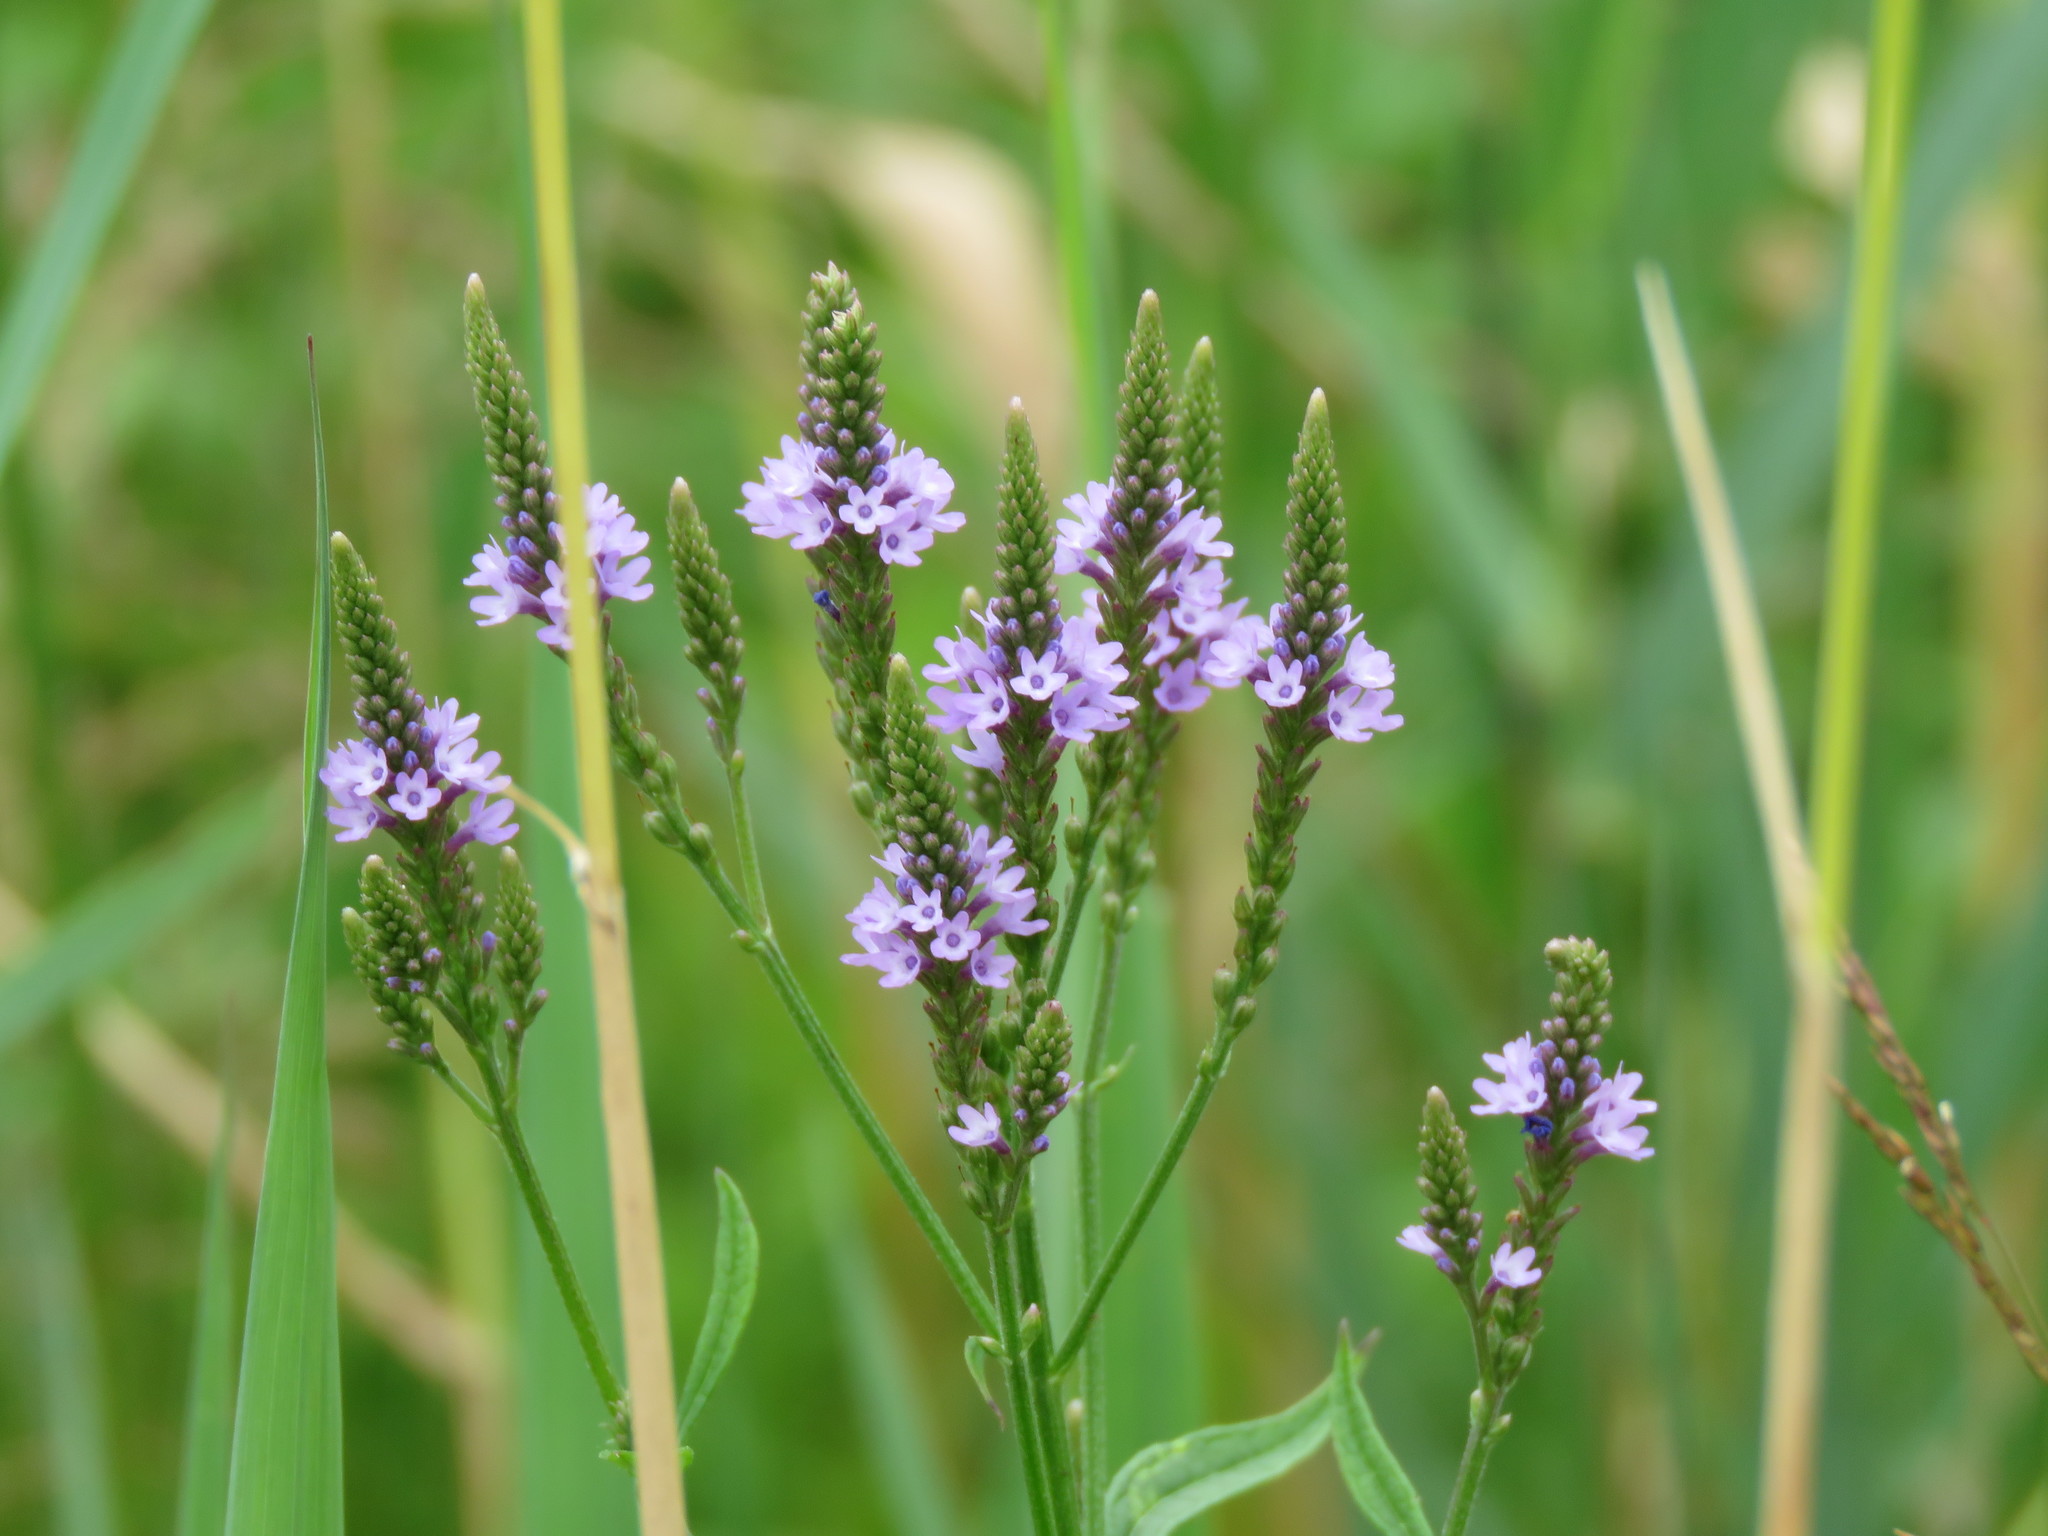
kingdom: Plantae
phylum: Tracheophyta
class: Magnoliopsida
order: Lamiales
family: Verbenaceae
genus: Verbena
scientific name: Verbena hastata
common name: American blue vervain
